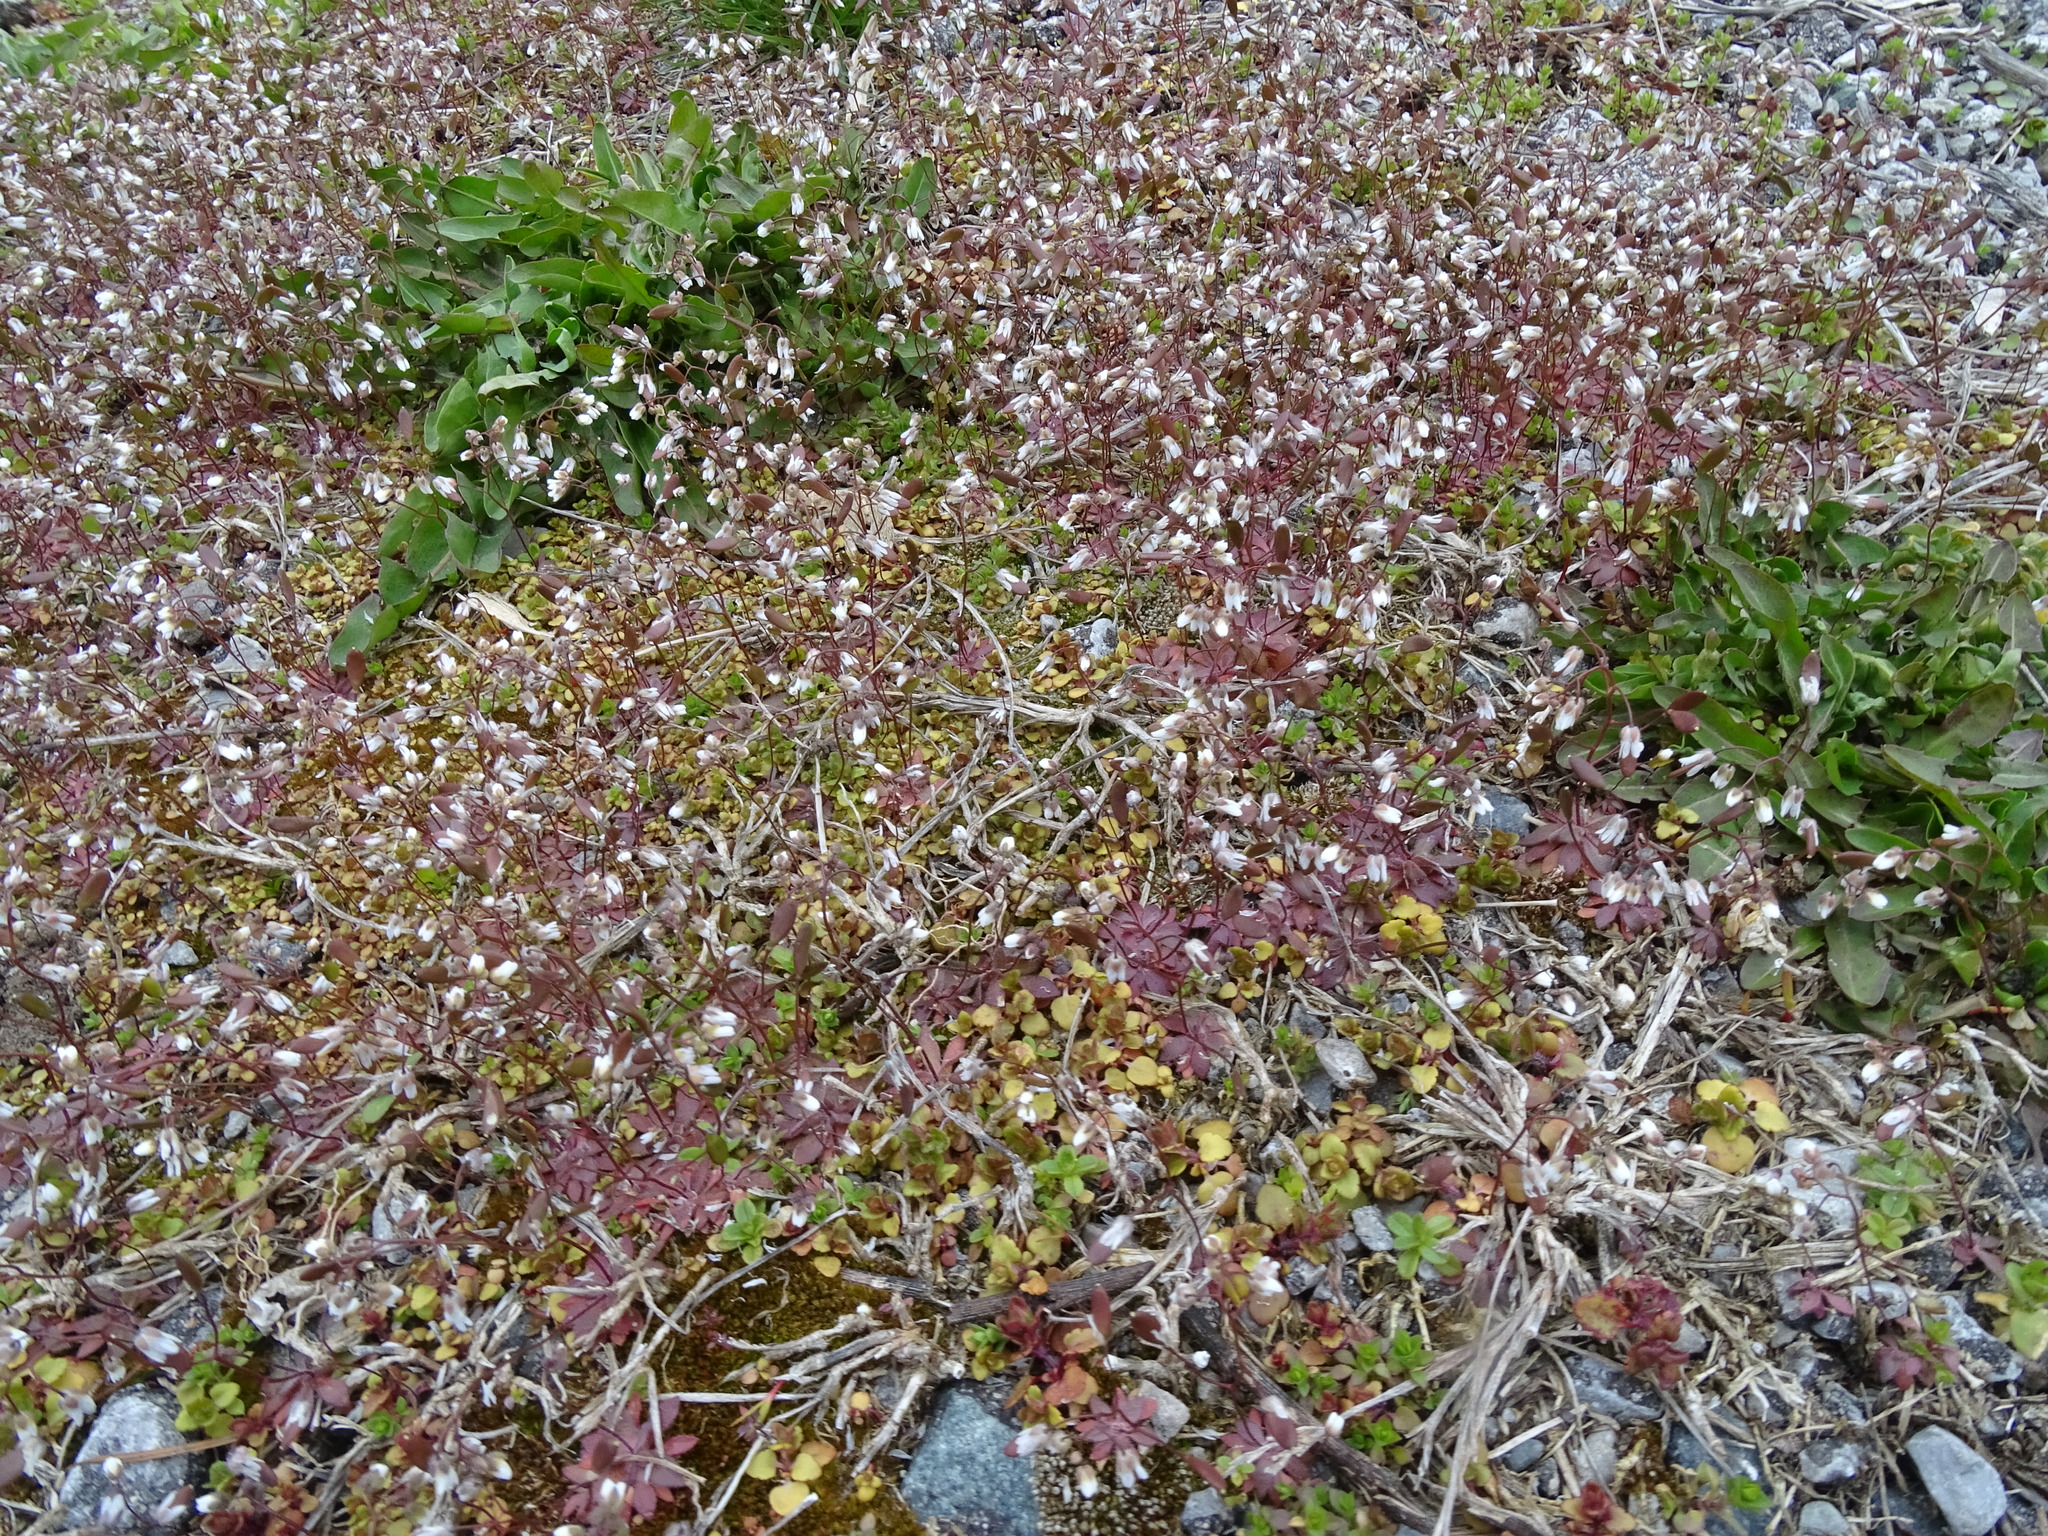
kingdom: Plantae
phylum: Tracheophyta
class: Magnoliopsida
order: Brassicales
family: Brassicaceae
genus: Draba
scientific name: Draba verna
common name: Spring draba
